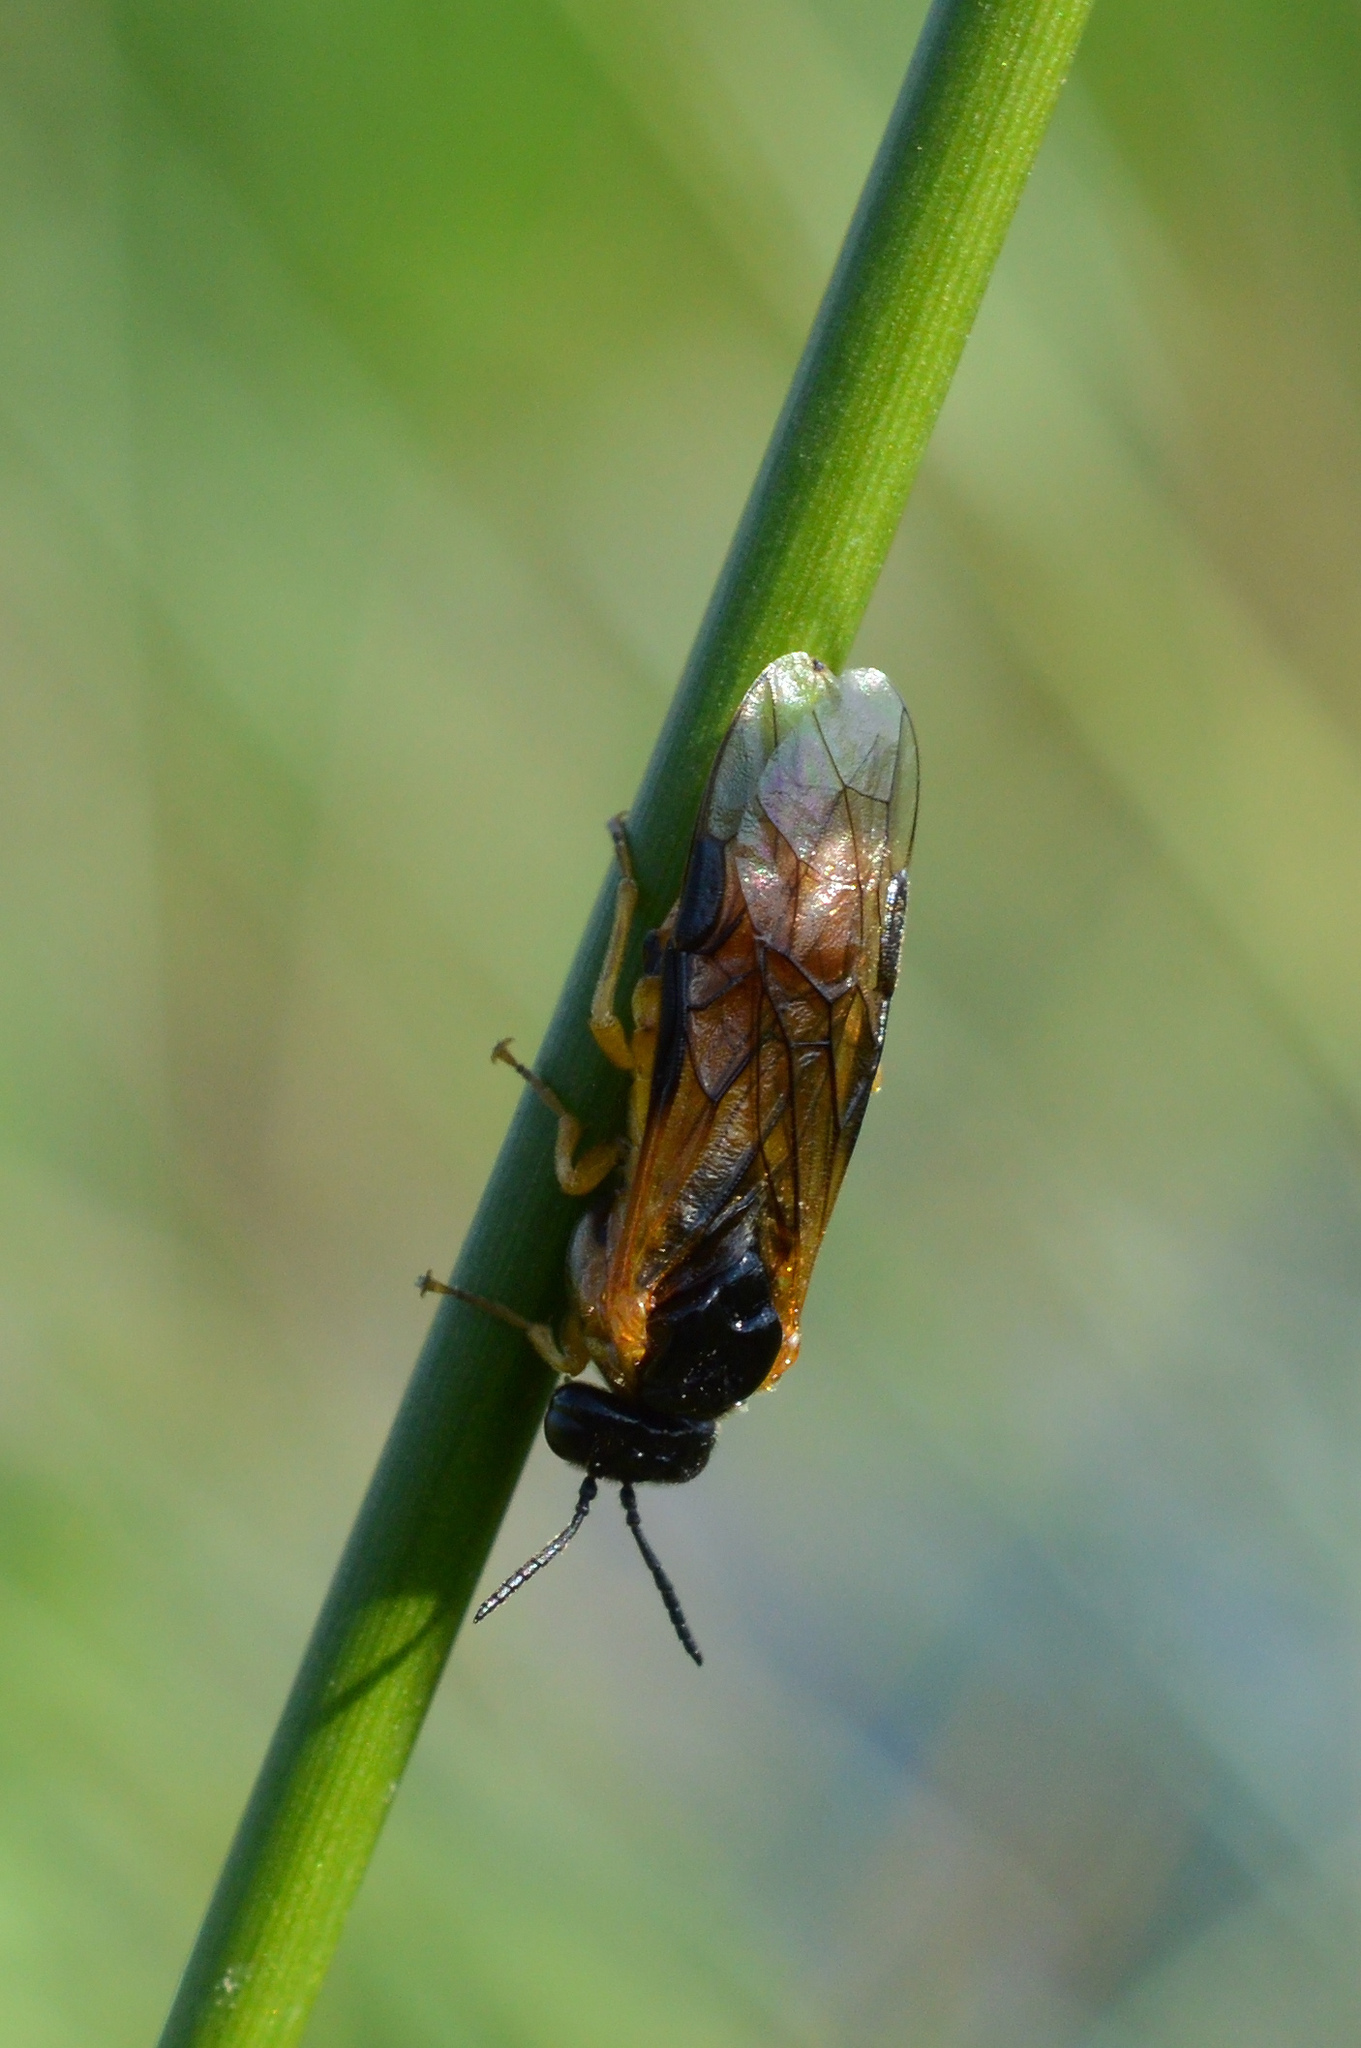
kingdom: Animalia
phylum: Arthropoda
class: Insecta
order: Hymenoptera
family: Tenthredinidae
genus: Selandria
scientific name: Selandria serva
